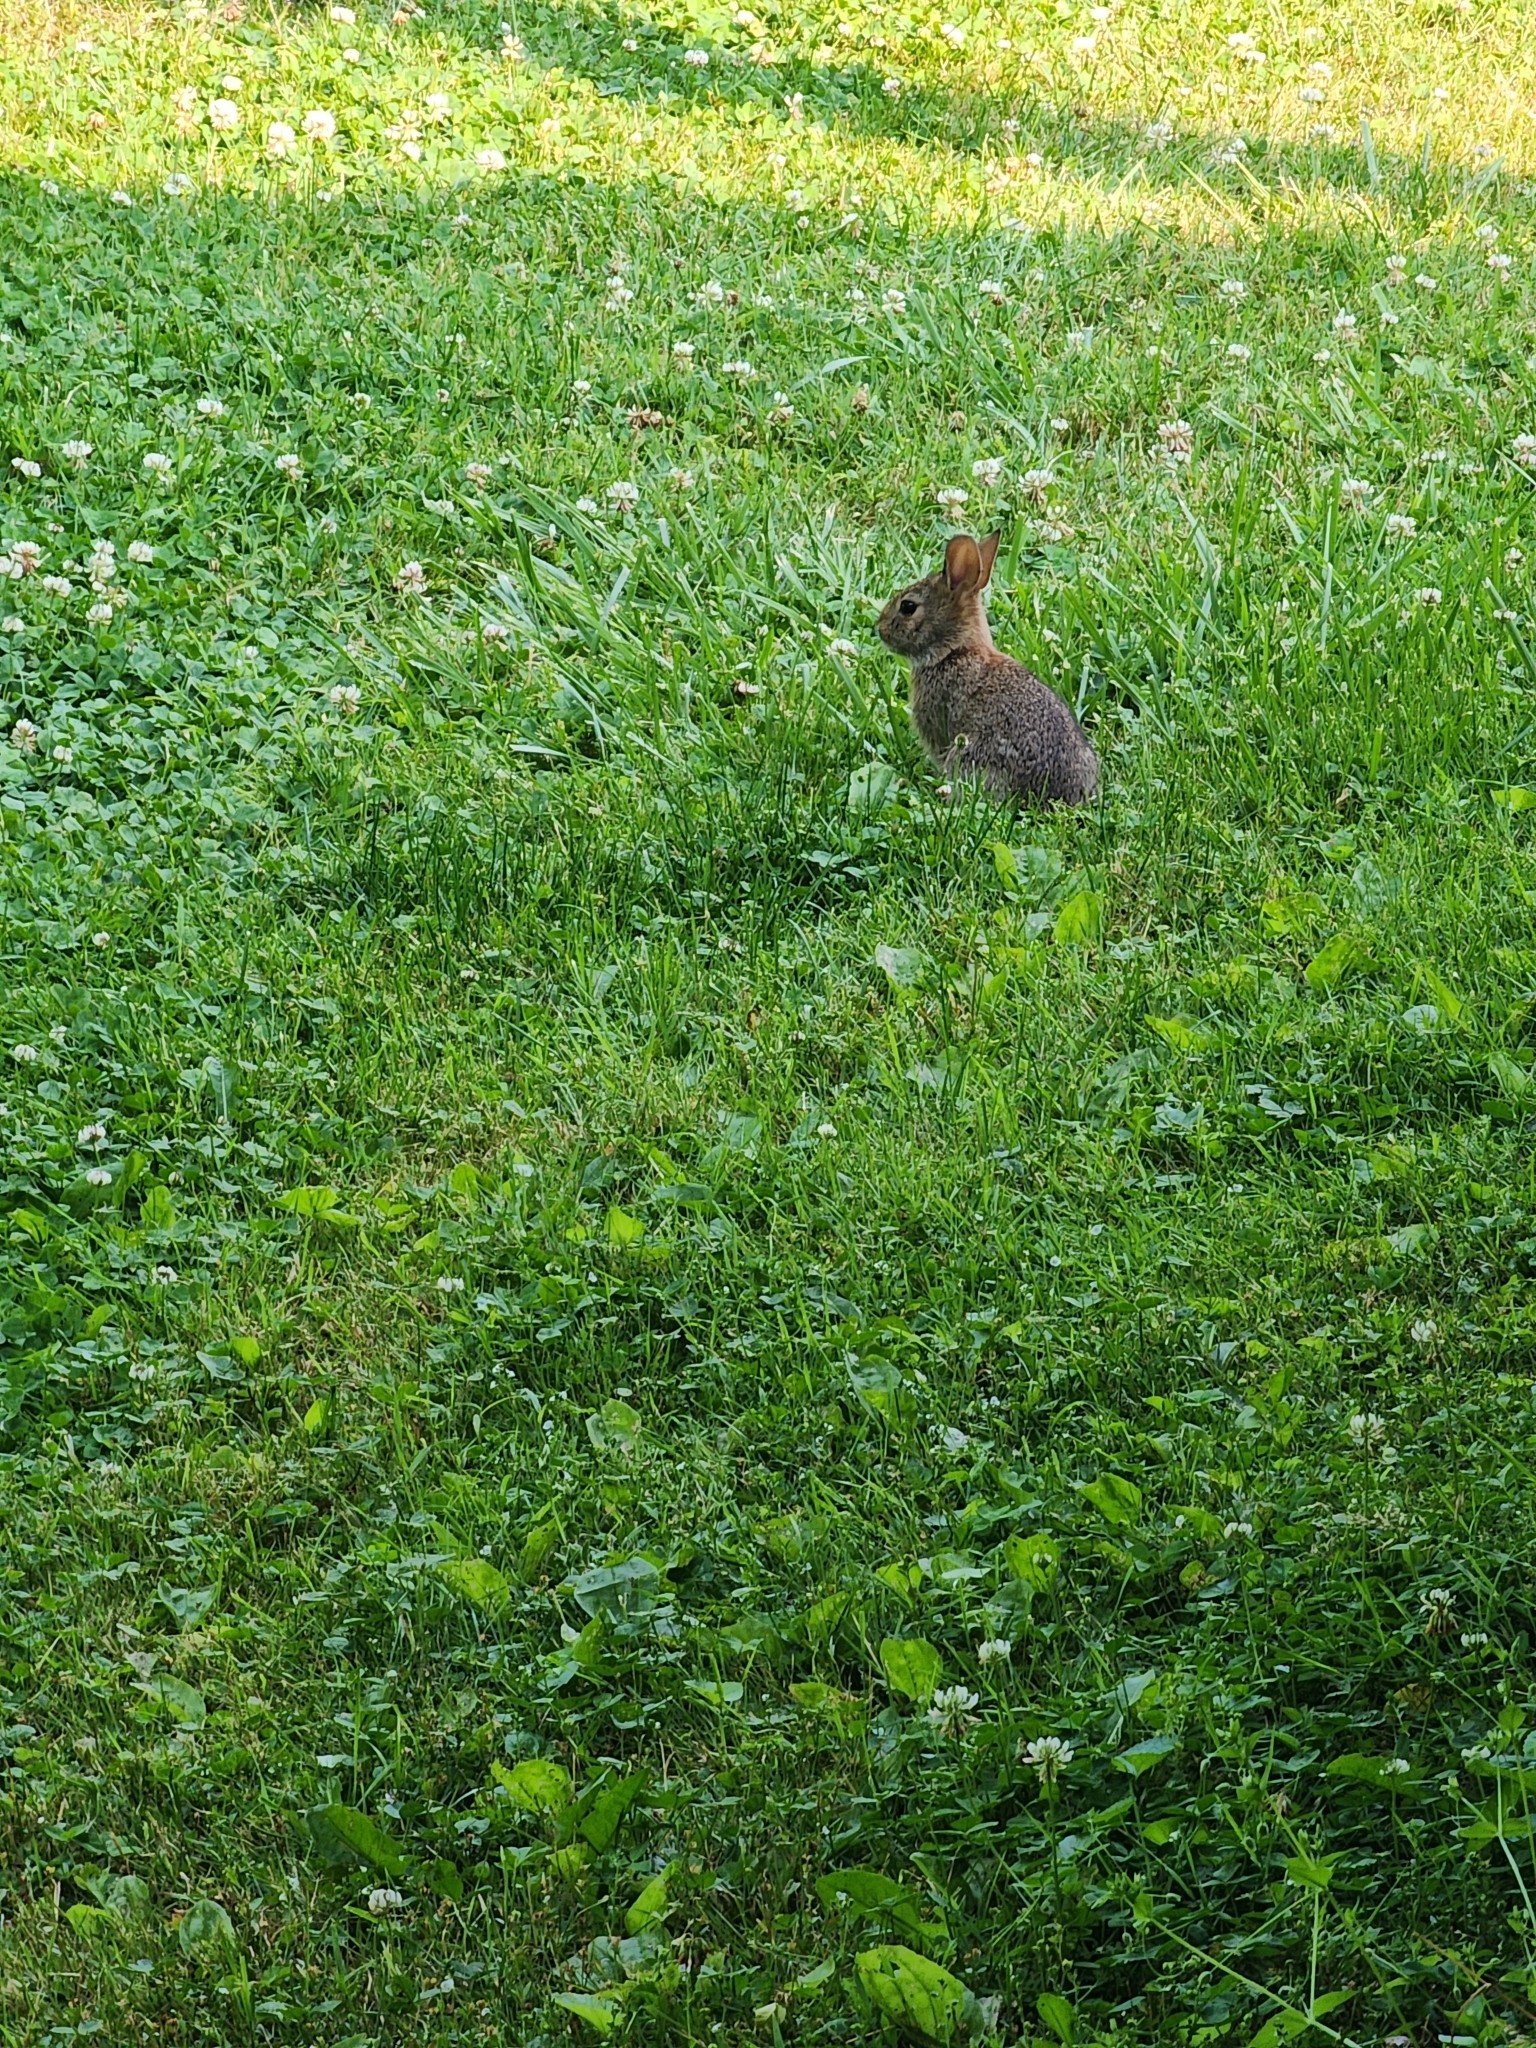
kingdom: Animalia
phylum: Chordata
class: Mammalia
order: Lagomorpha
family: Leporidae
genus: Sylvilagus
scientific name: Sylvilagus floridanus
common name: Eastern cottontail
